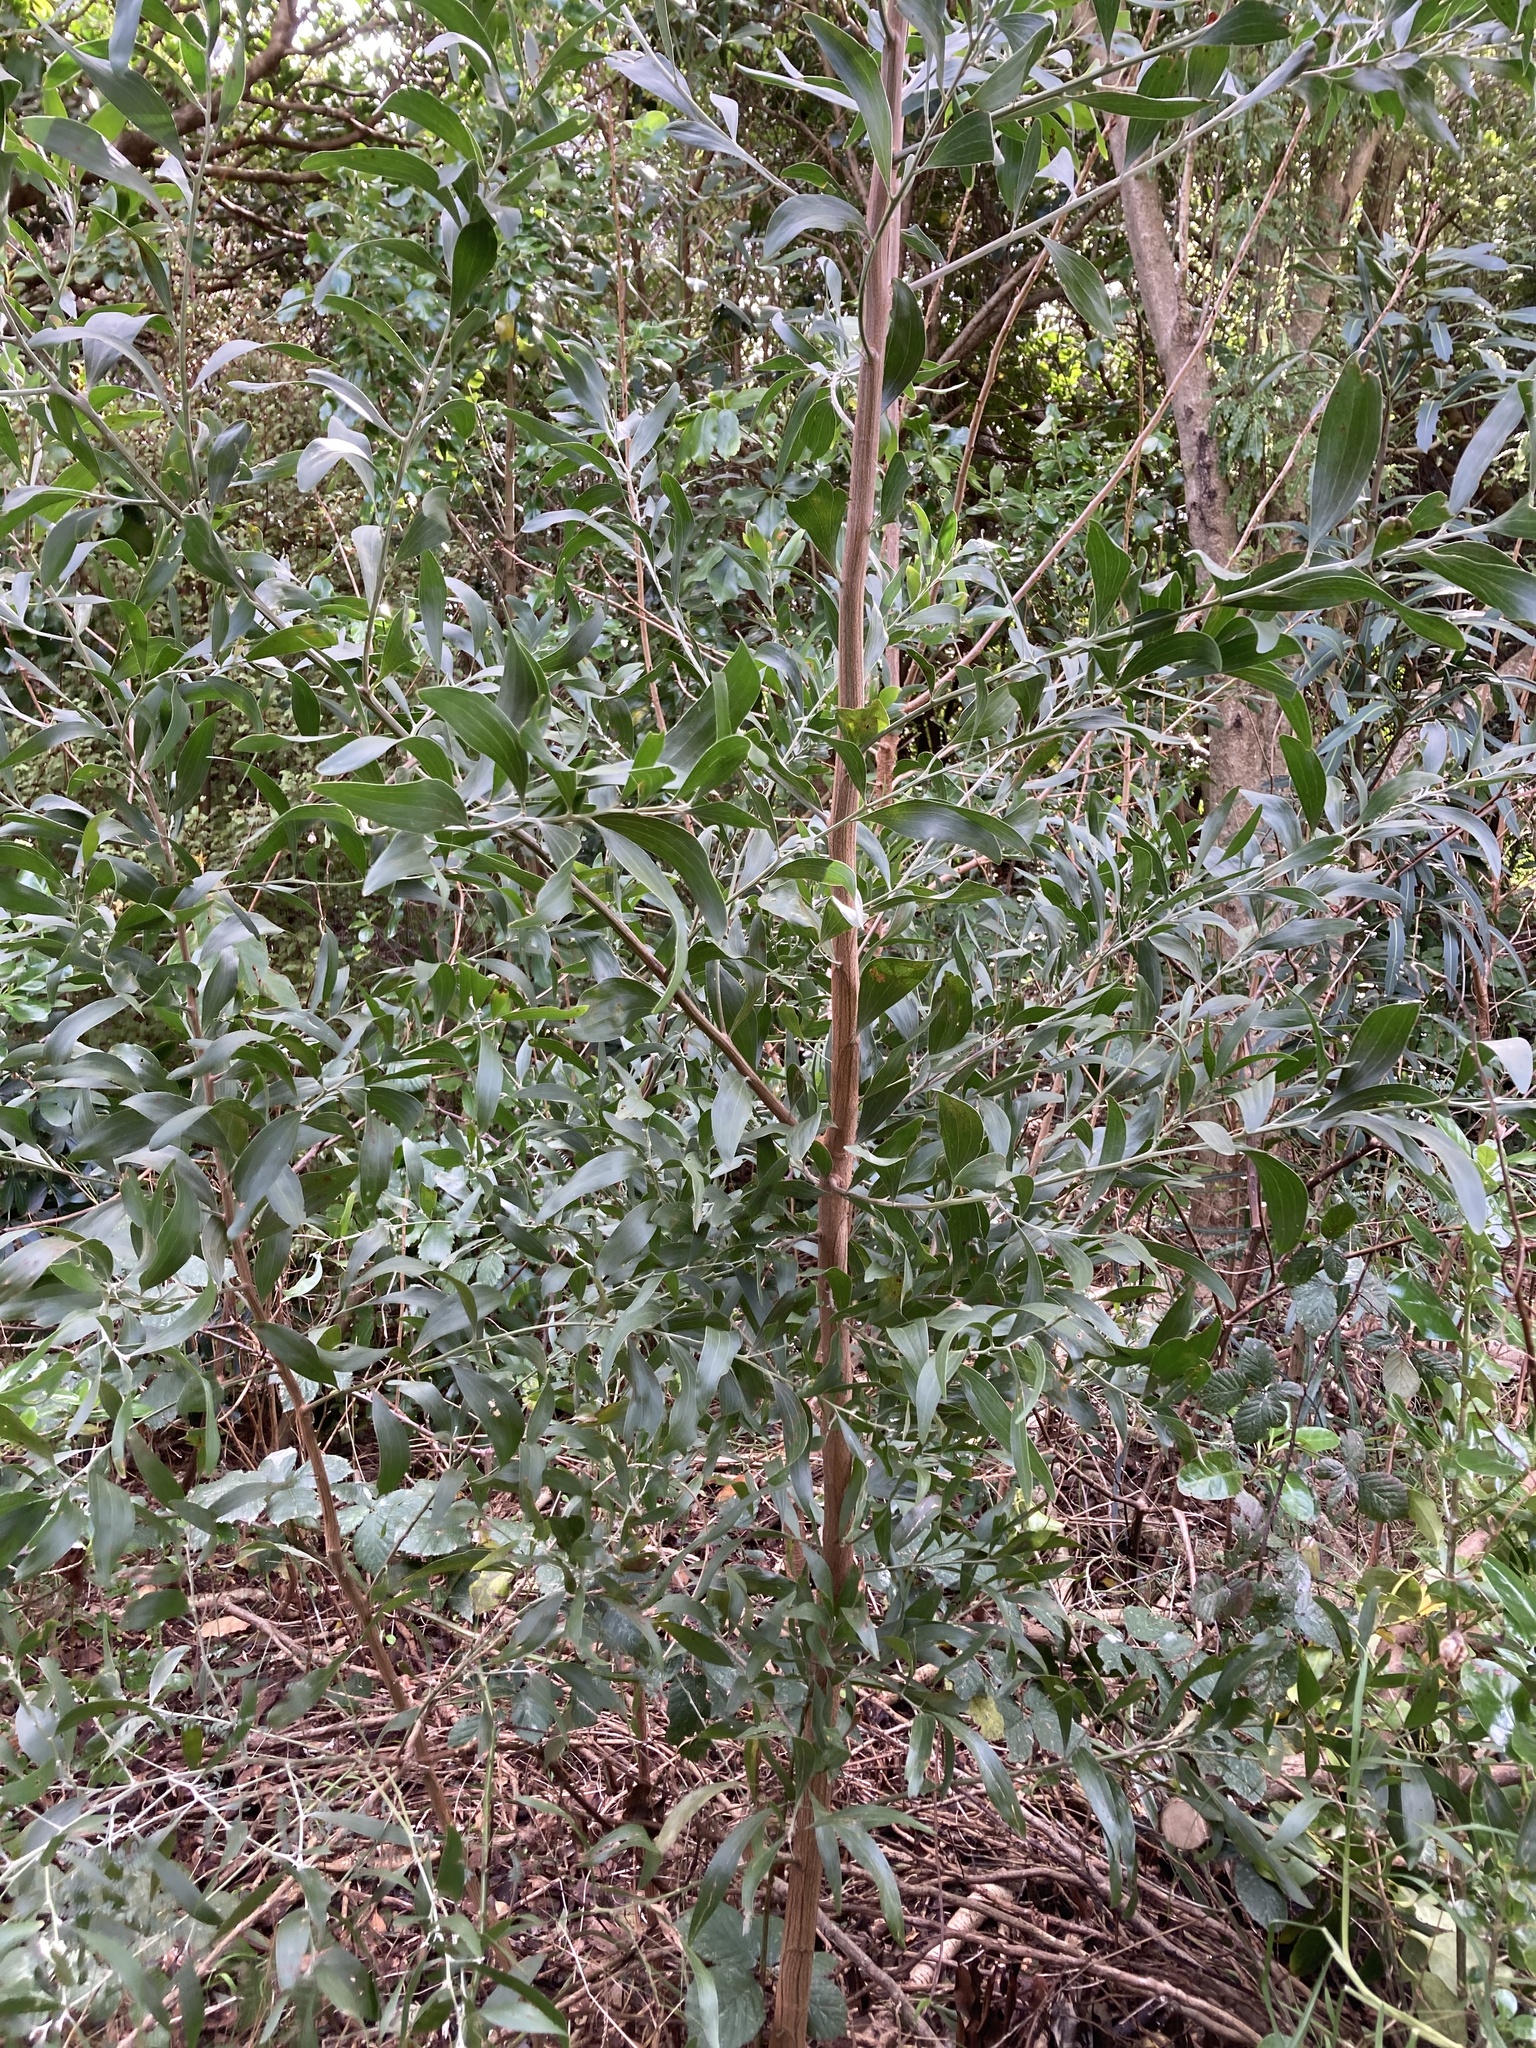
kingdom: Plantae
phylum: Tracheophyta
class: Magnoliopsida
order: Fabales
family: Fabaceae
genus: Acacia
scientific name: Acacia melanoxylon
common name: Blackwood
